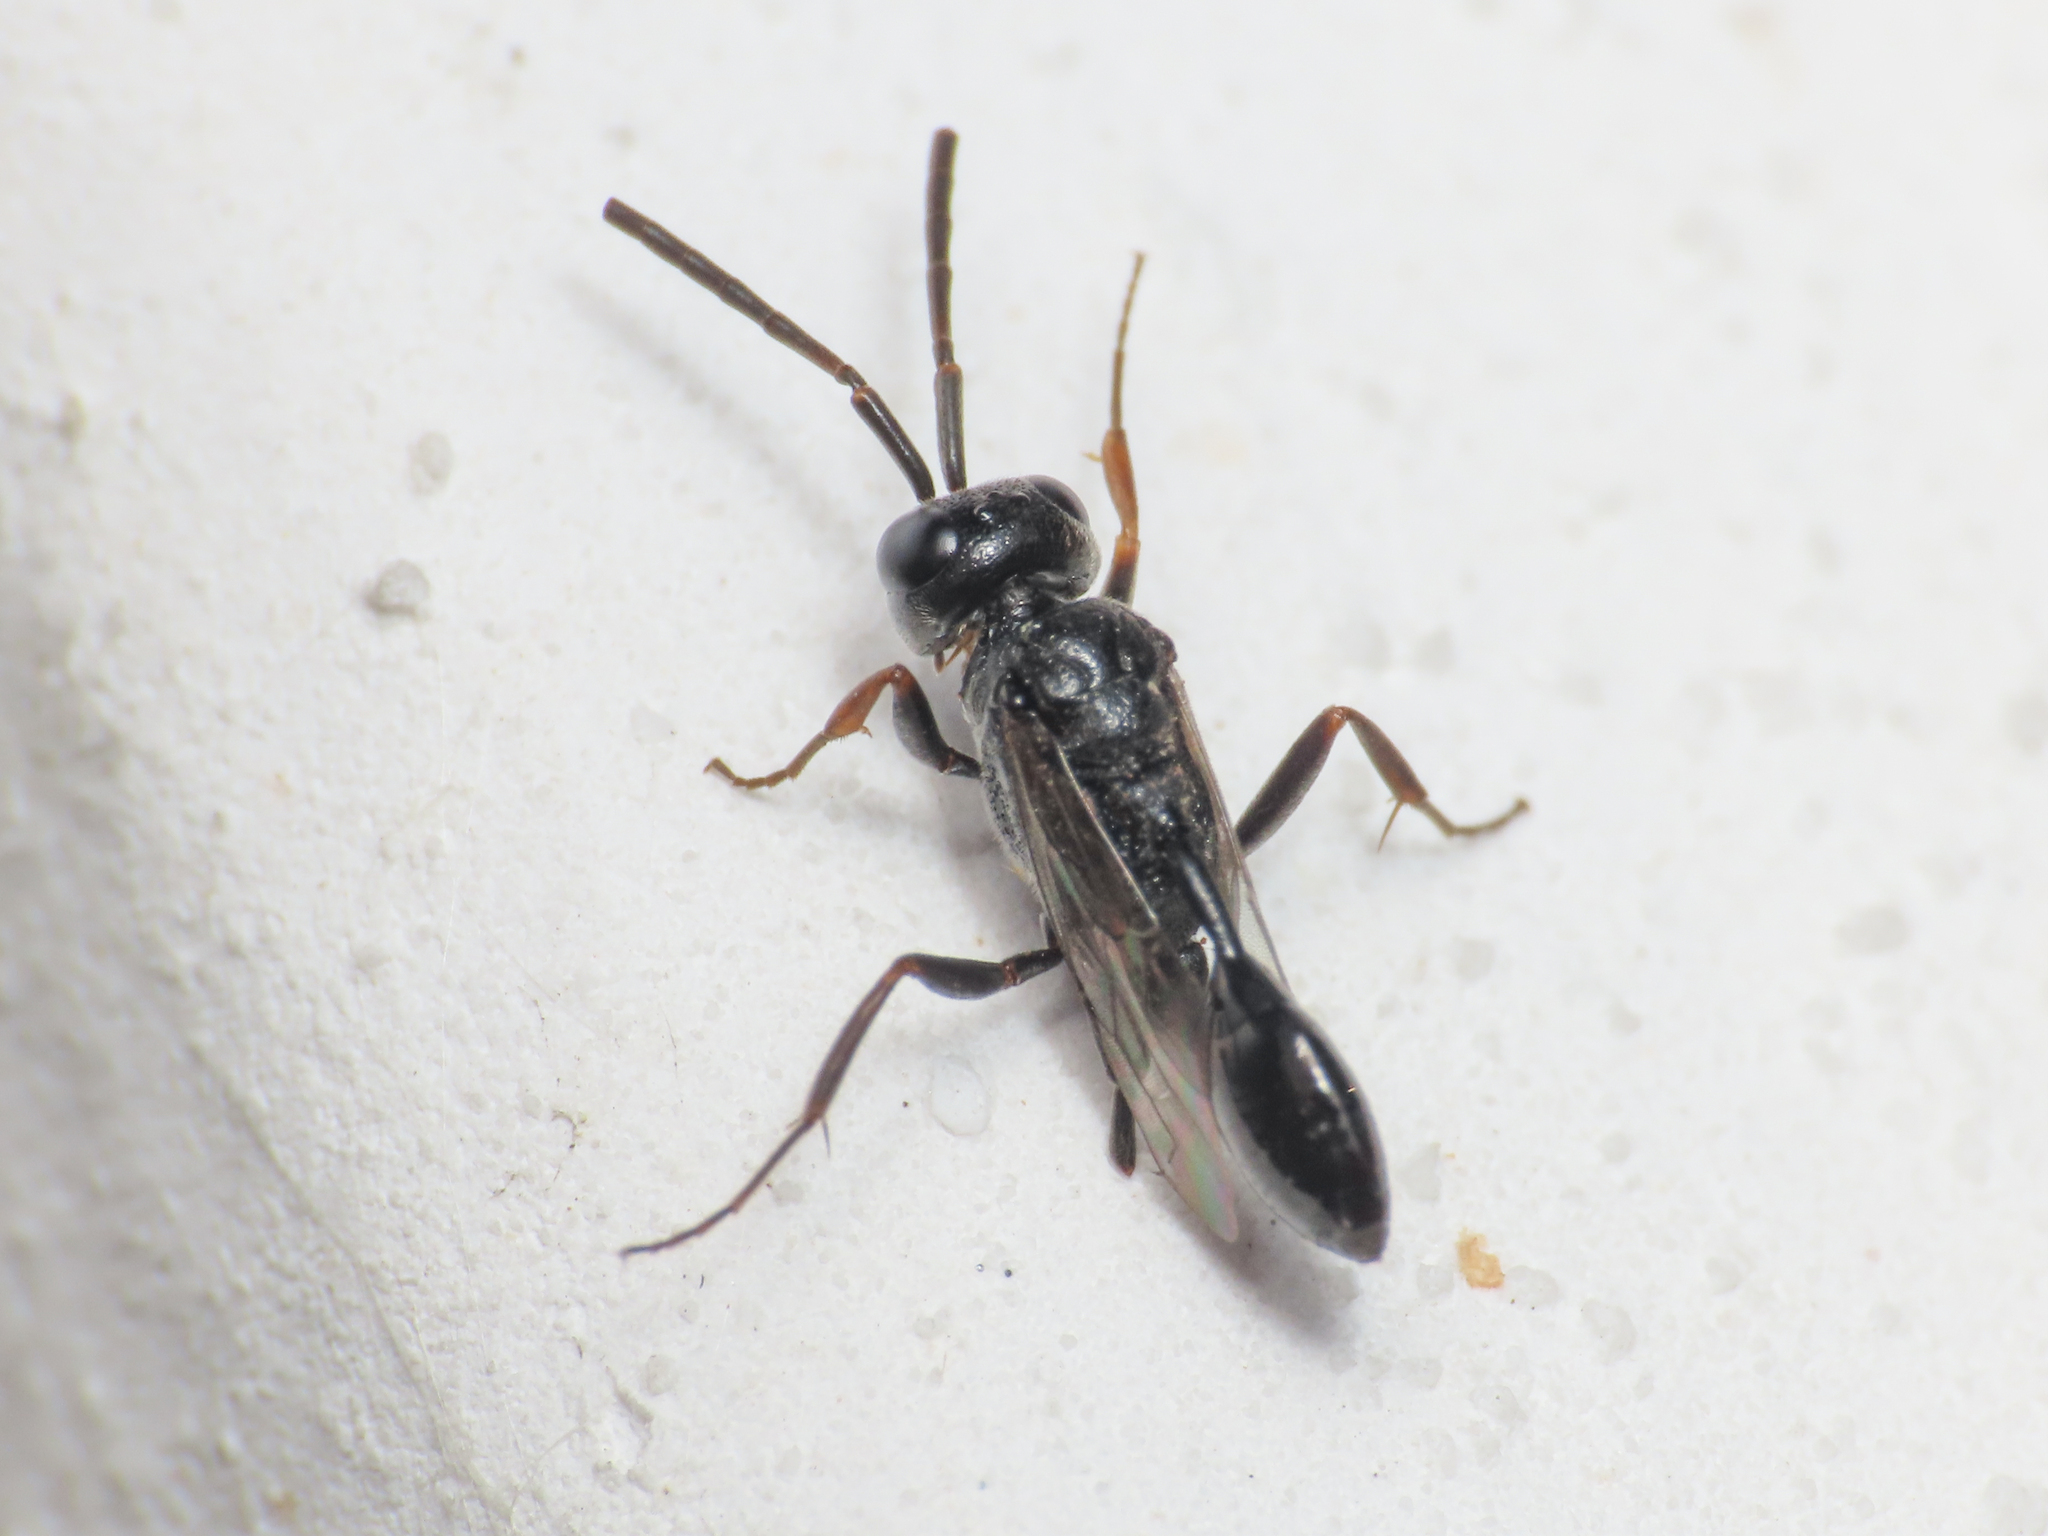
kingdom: Animalia
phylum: Arthropoda
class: Insecta
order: Hymenoptera
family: Evaniidae
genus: Zeuxevania
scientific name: Zeuxevania splendidula
